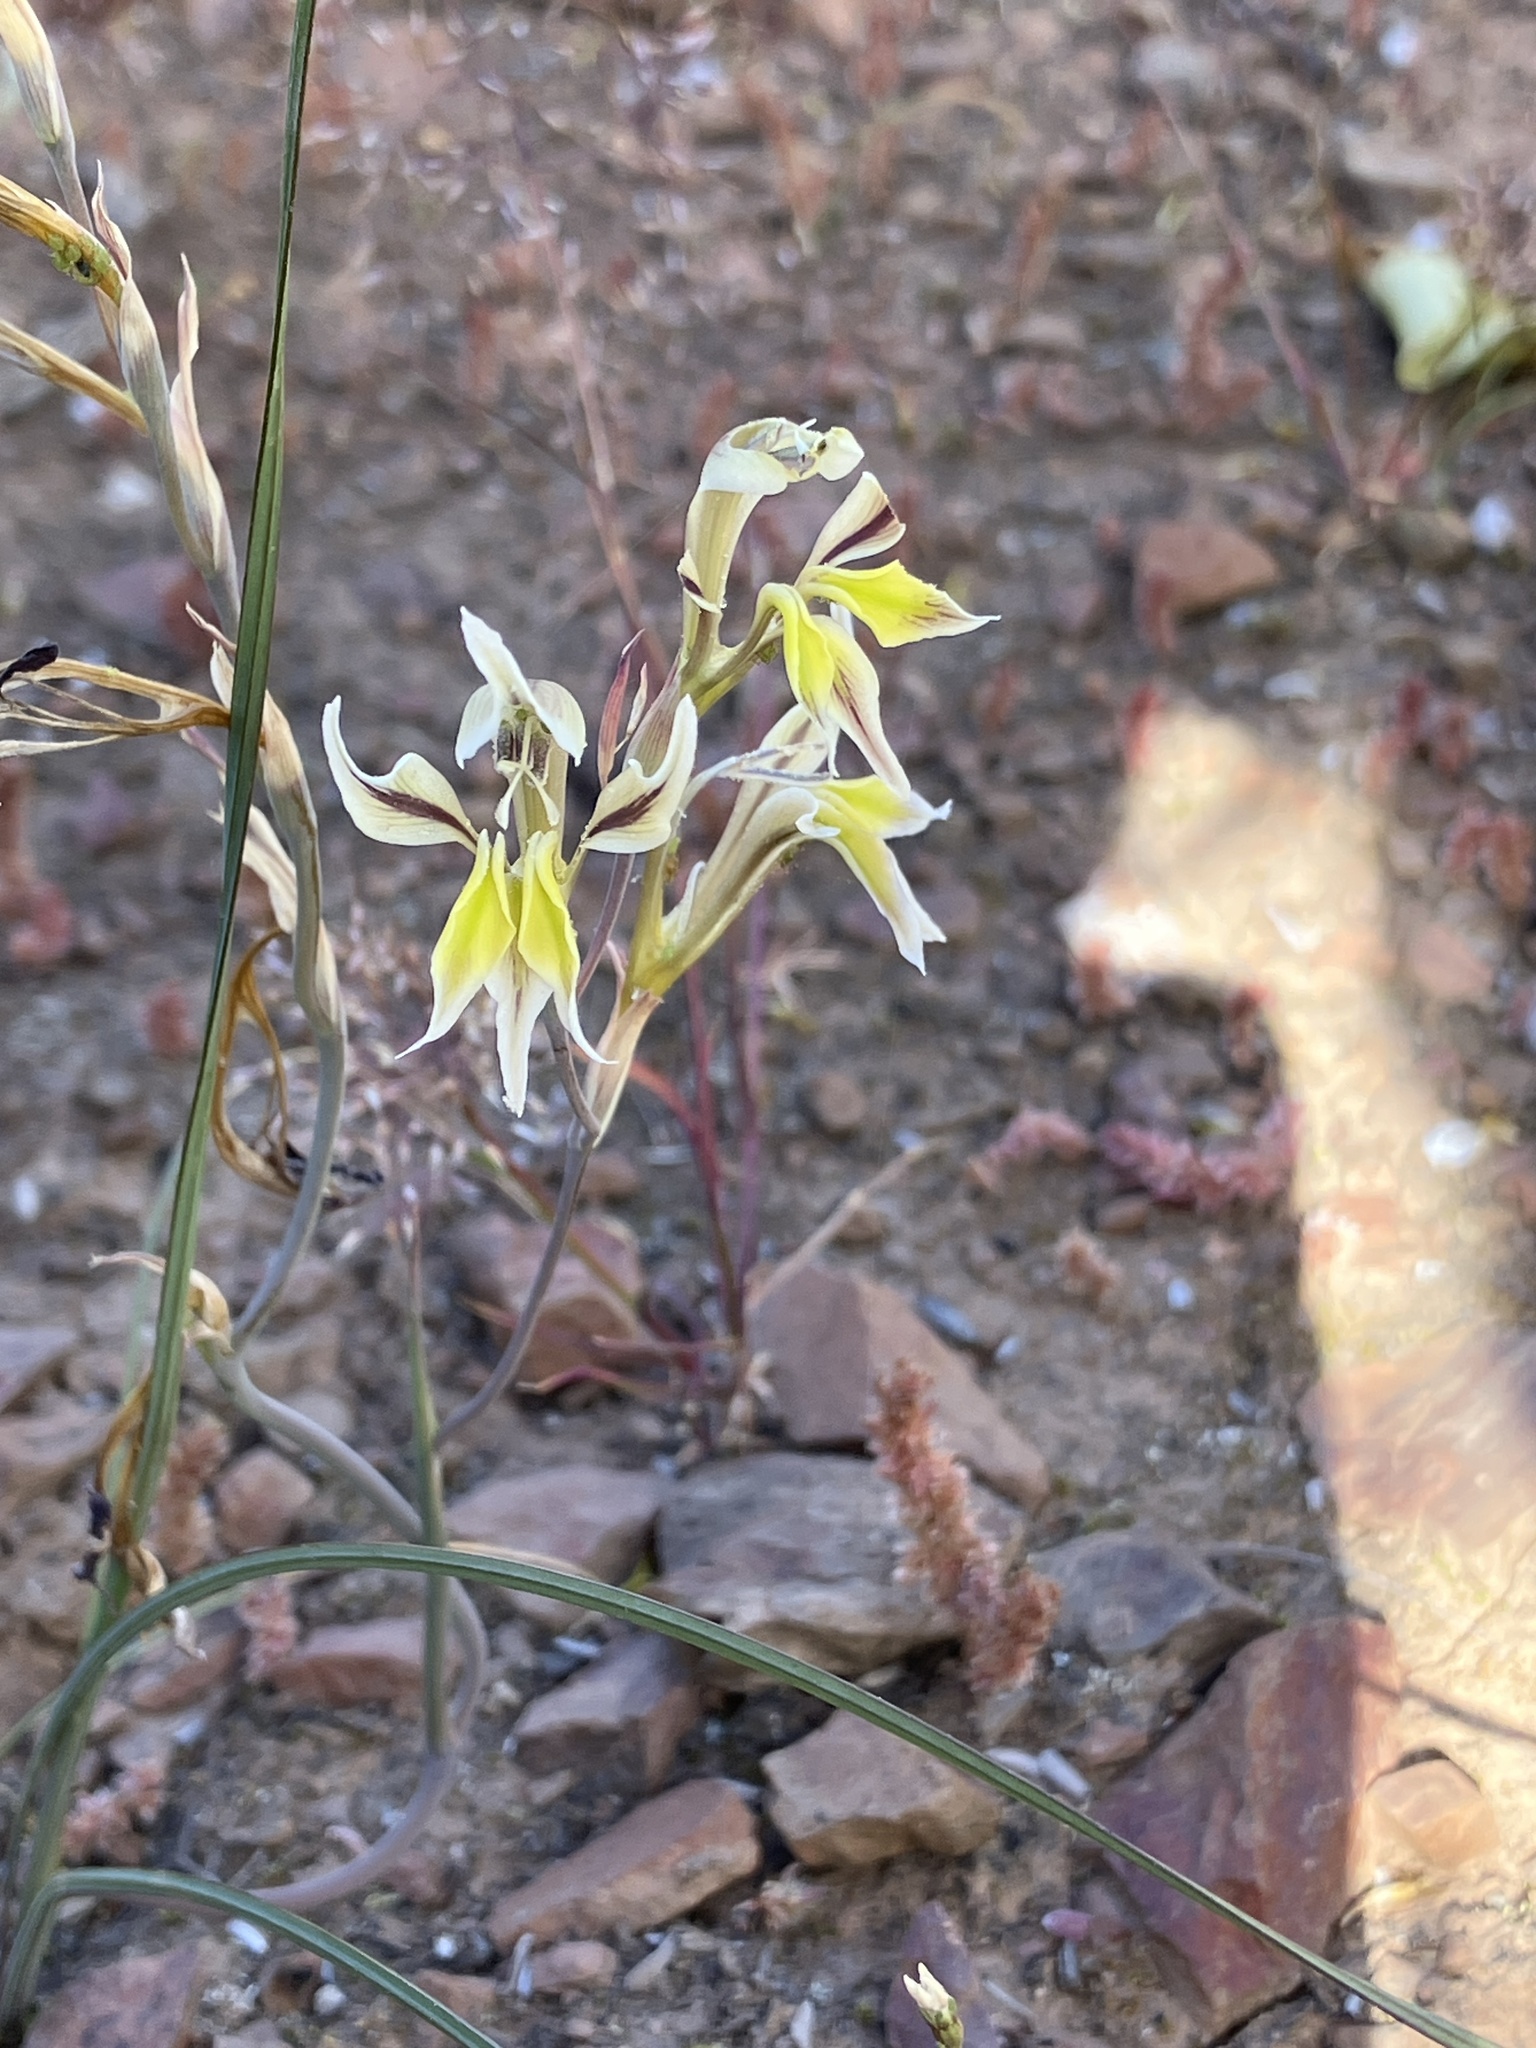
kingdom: Plantae
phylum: Tracheophyta
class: Liliopsida
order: Asparagales
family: Iridaceae
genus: Gladiolus
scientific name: Gladiolus permeabilis
